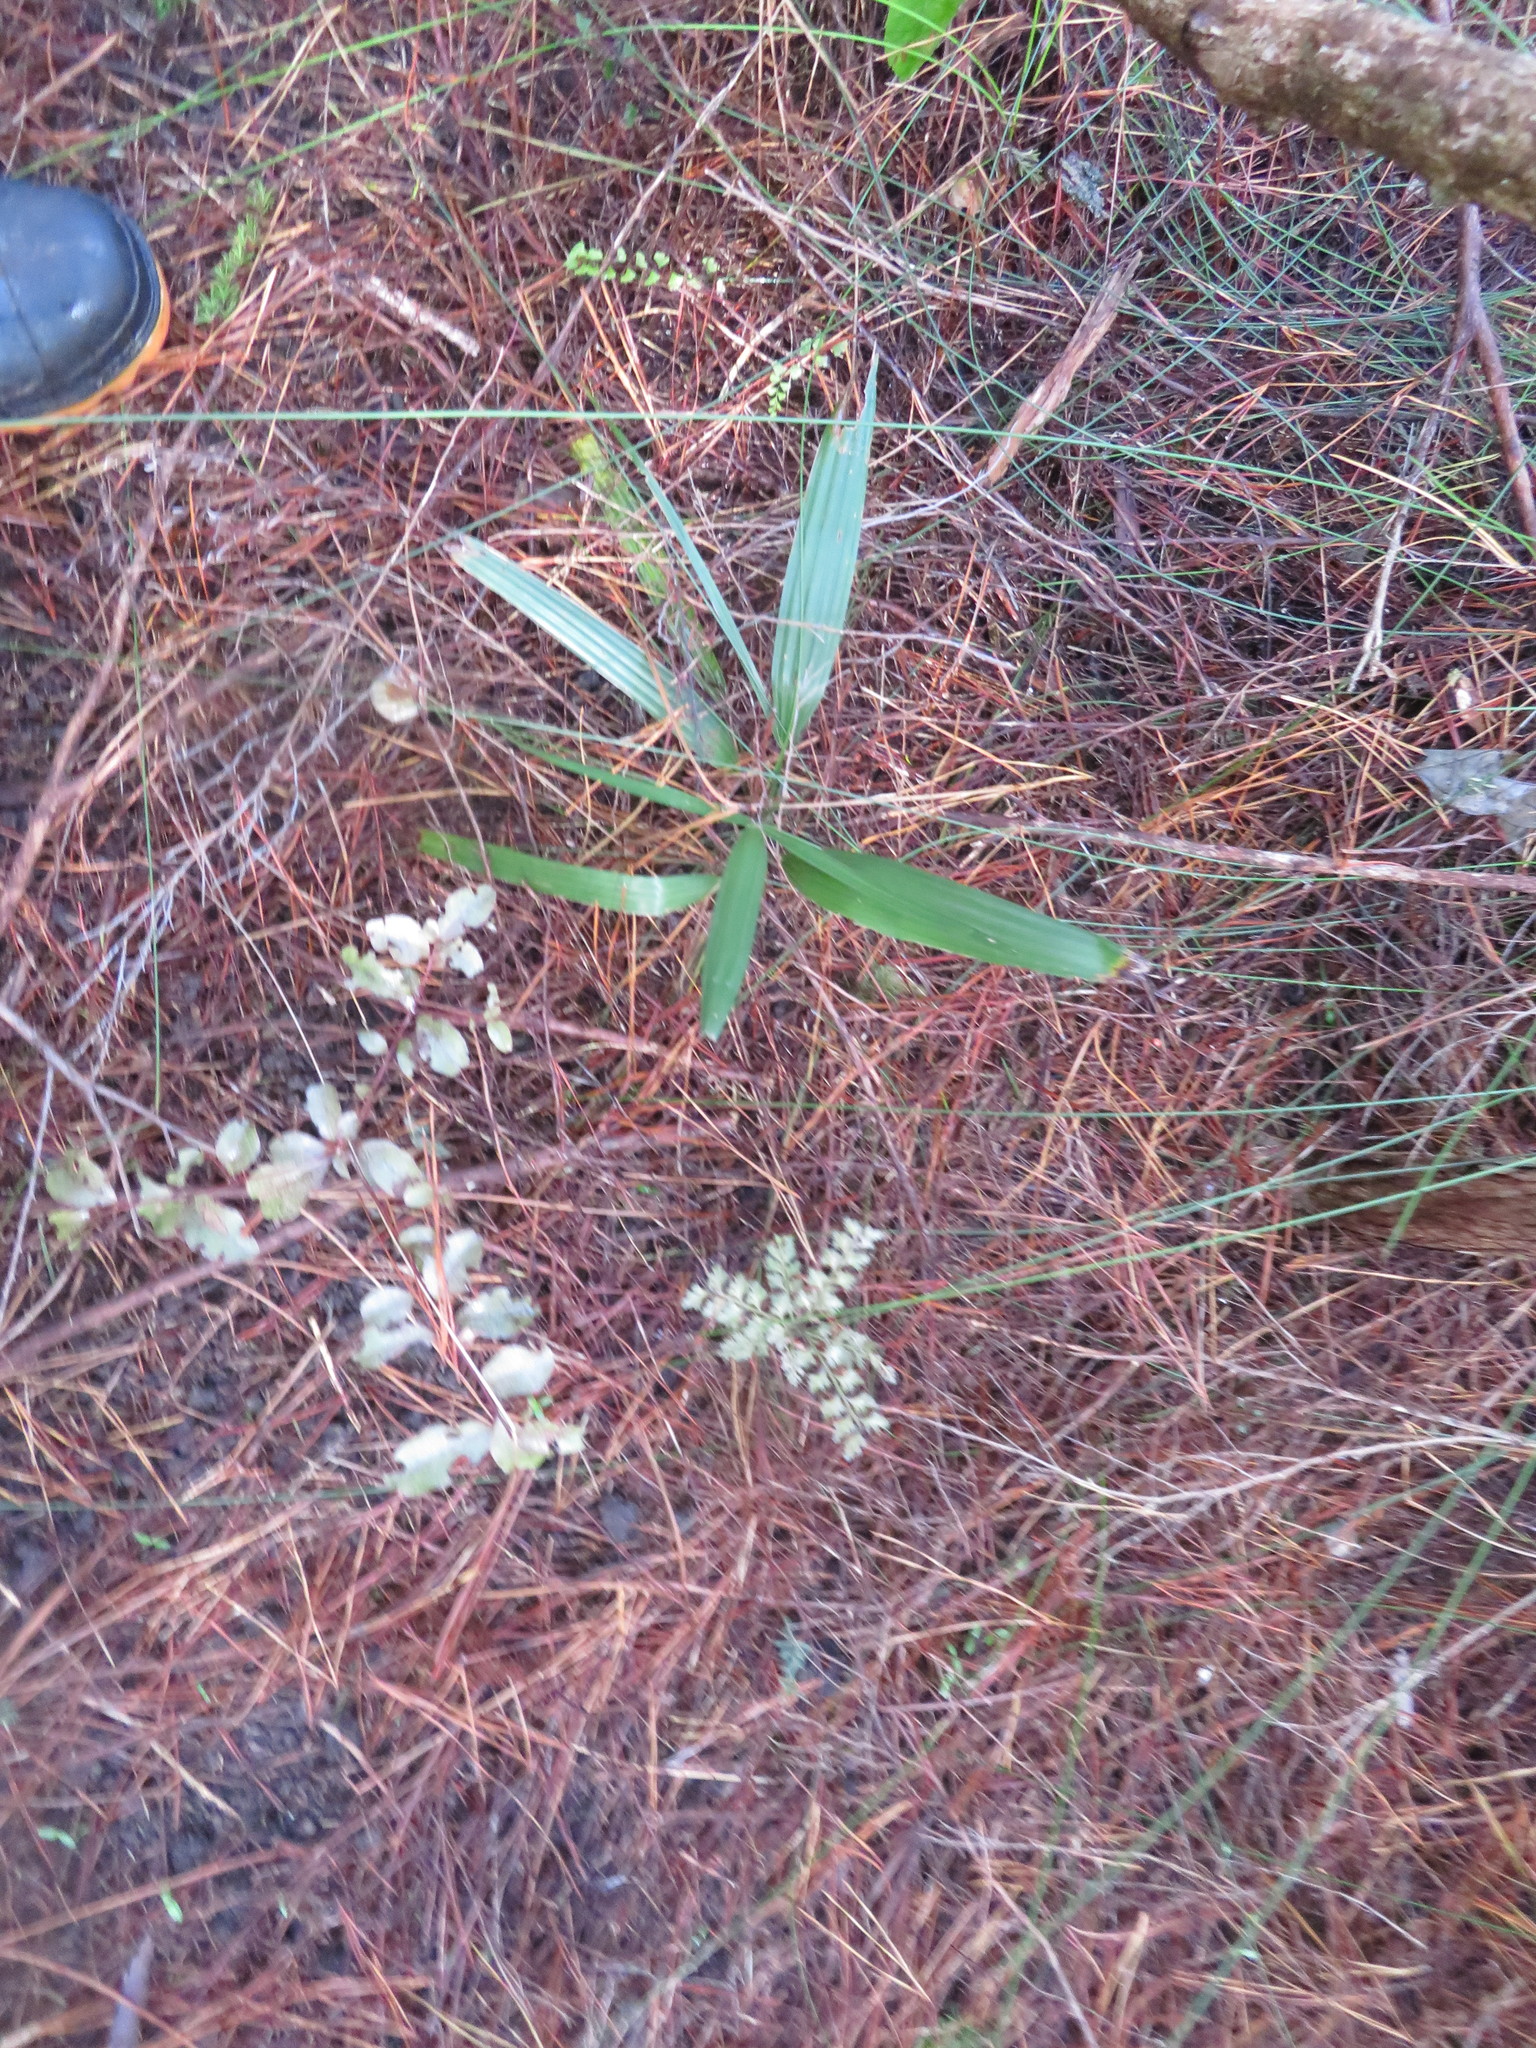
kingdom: Plantae
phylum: Tracheophyta
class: Pinopsida
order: Pinales
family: Phyllocladaceae
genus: Phyllocladus
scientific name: Phyllocladus trichomanoides
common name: Celery pine
